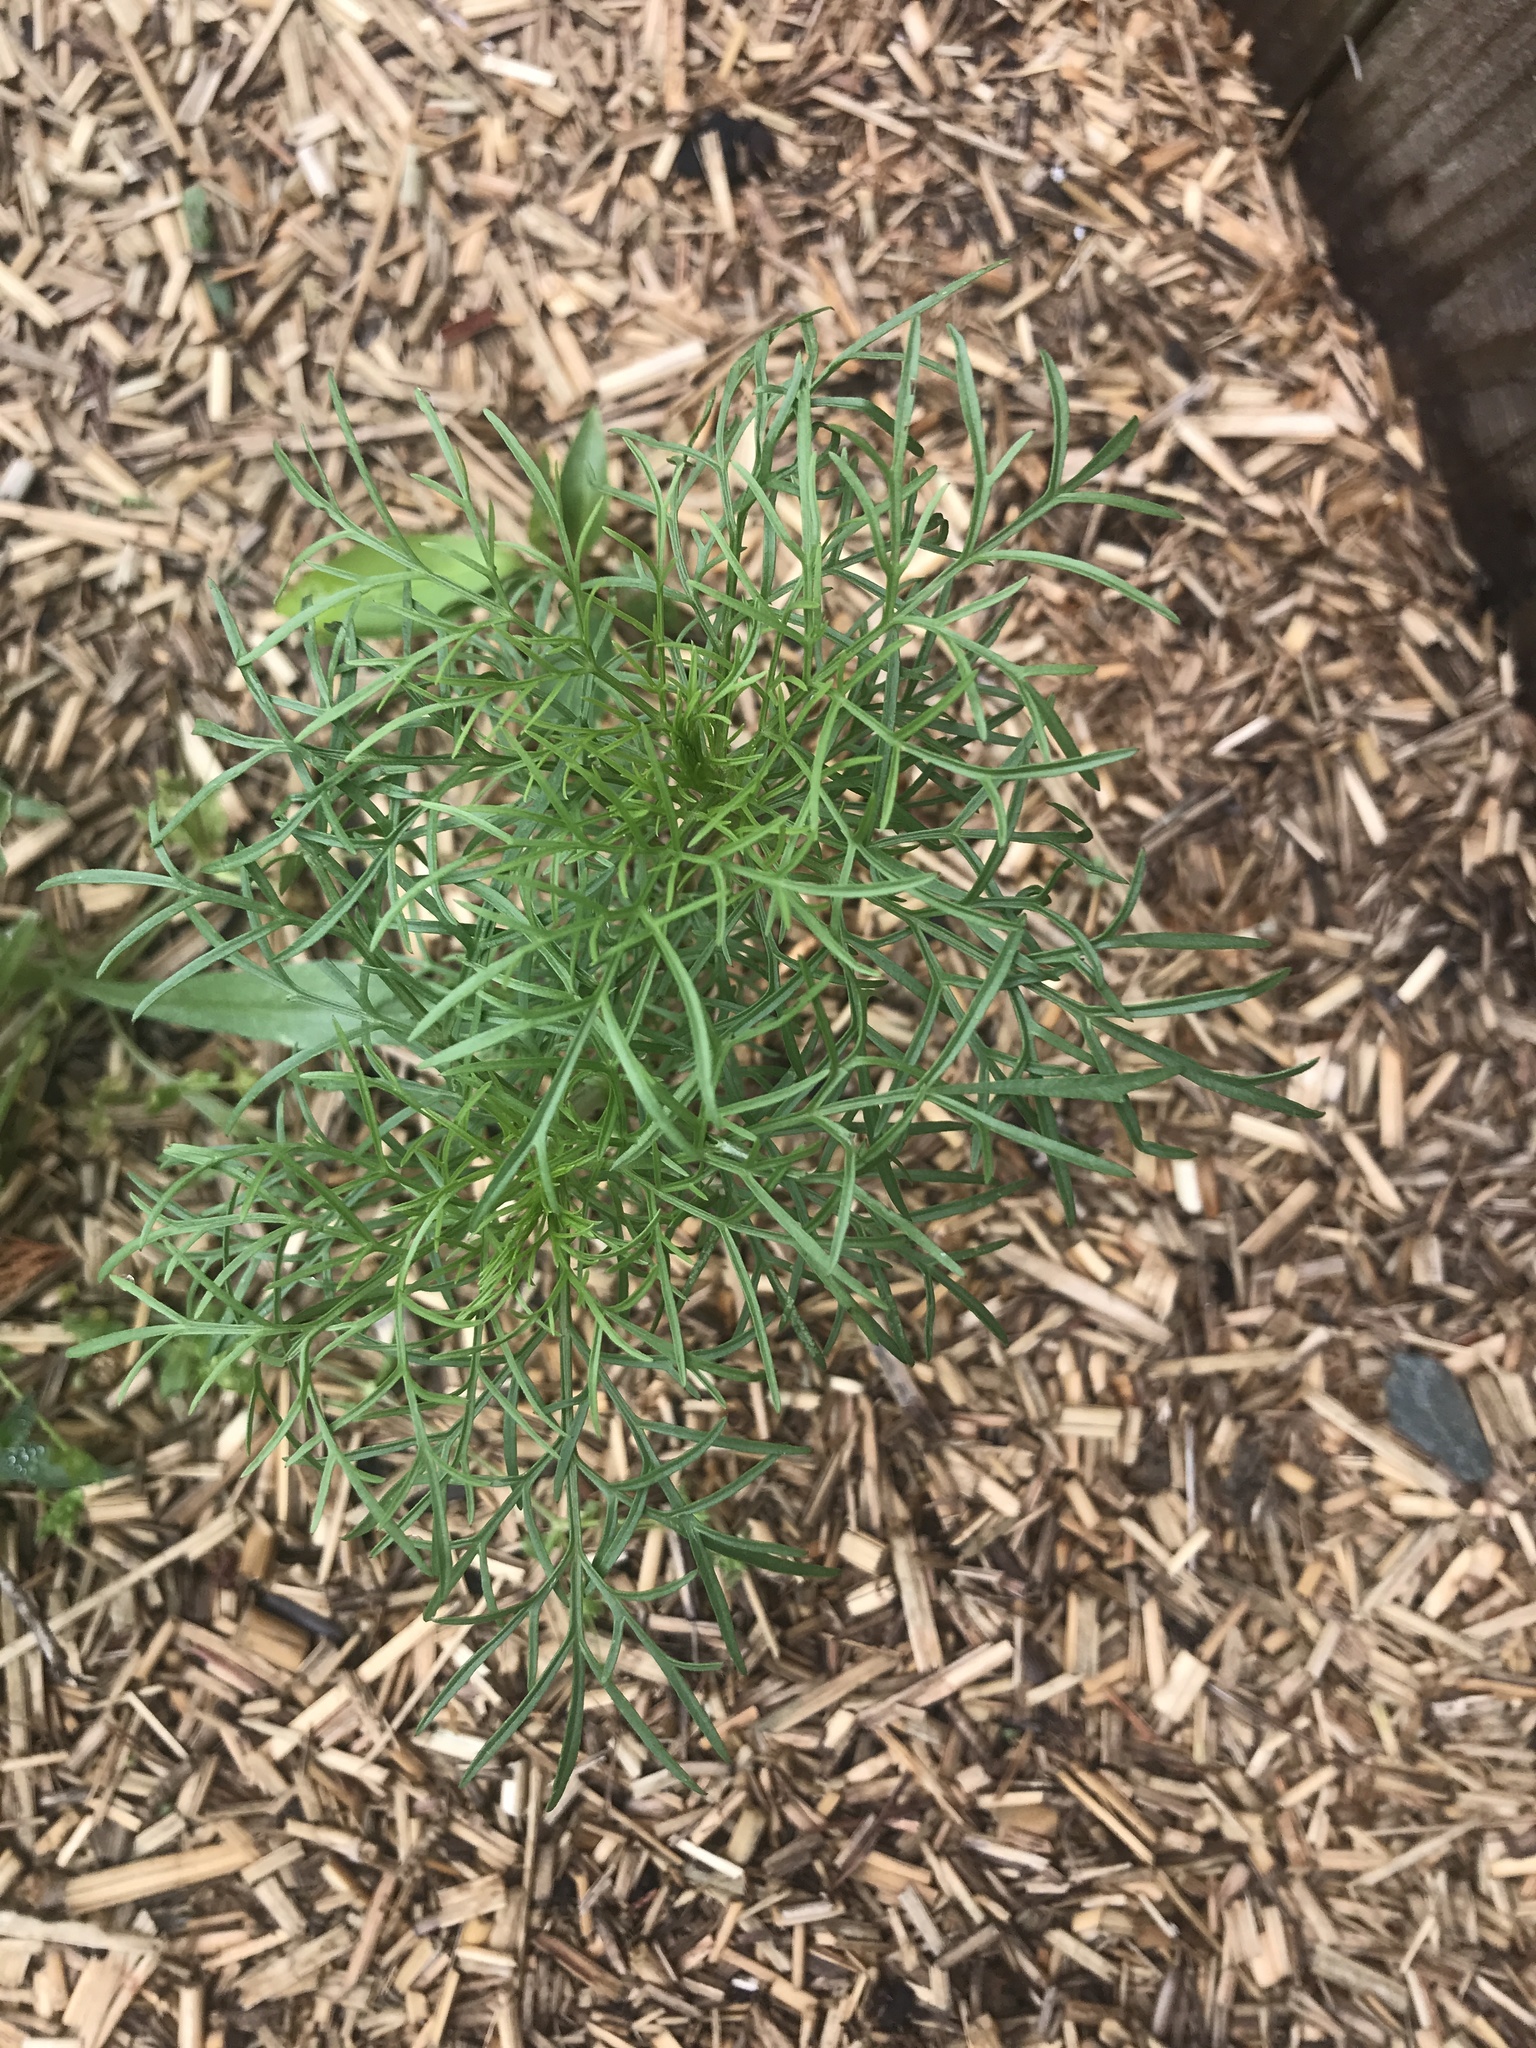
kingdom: Plantae
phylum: Tracheophyta
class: Magnoliopsida
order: Asterales
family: Asteraceae
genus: Cosmos
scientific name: Cosmos bipinnatus
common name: Garden cosmos
